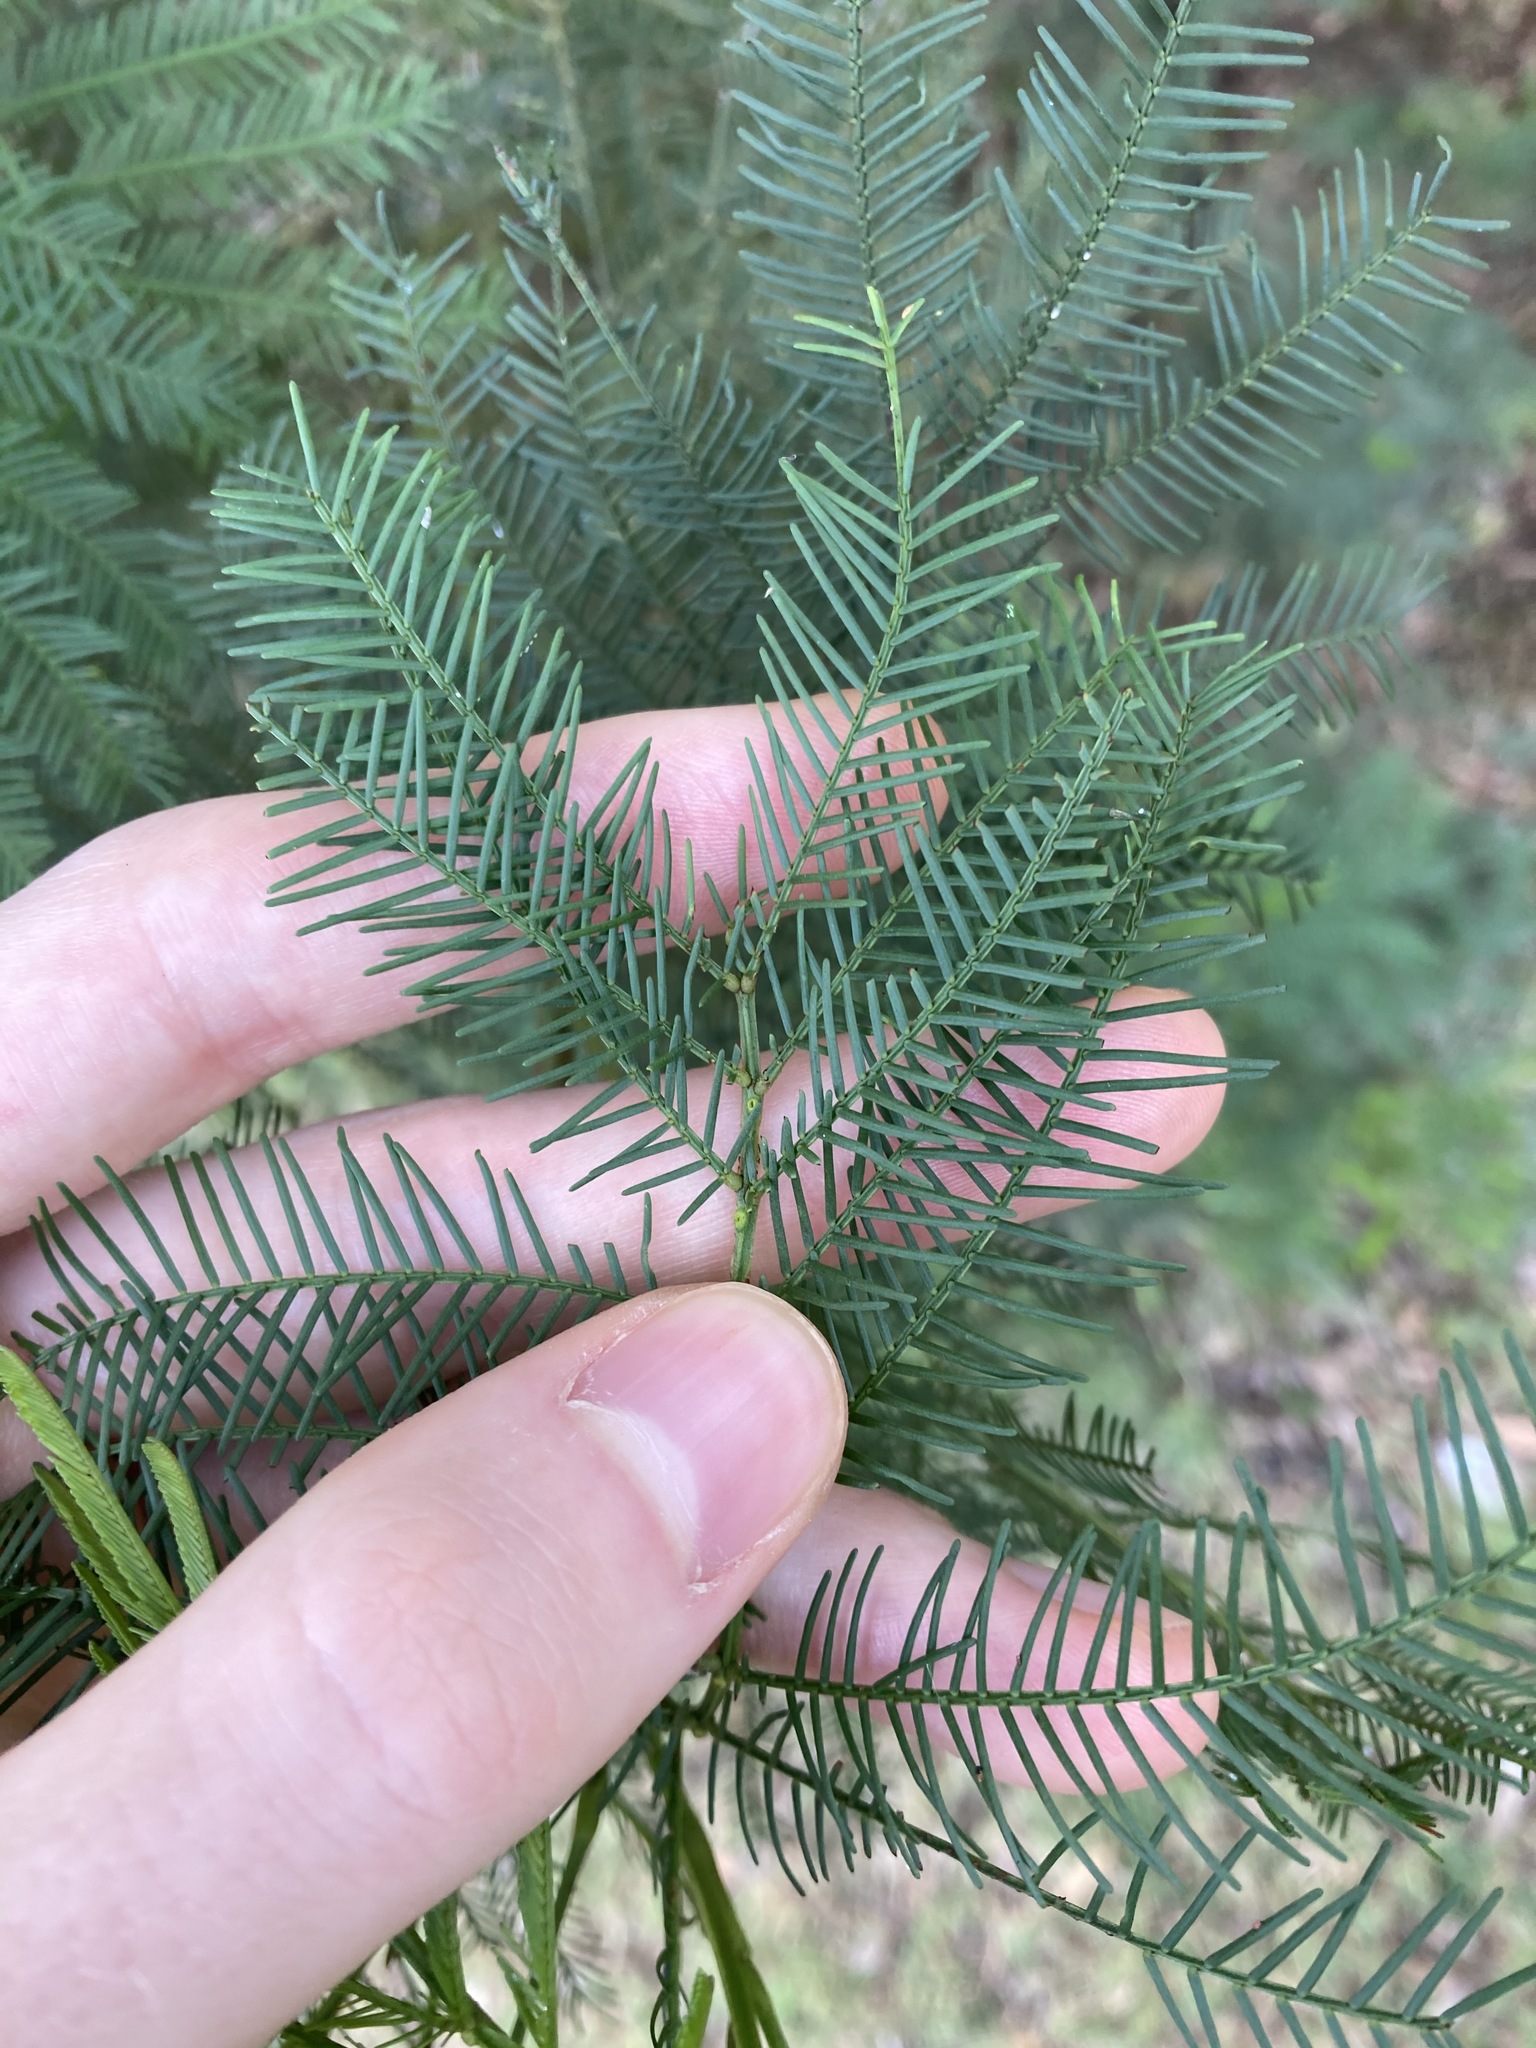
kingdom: Plantae
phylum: Tracheophyta
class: Magnoliopsida
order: Fabales
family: Fabaceae
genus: Acacia
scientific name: Acacia decurrens
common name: Green wattle
